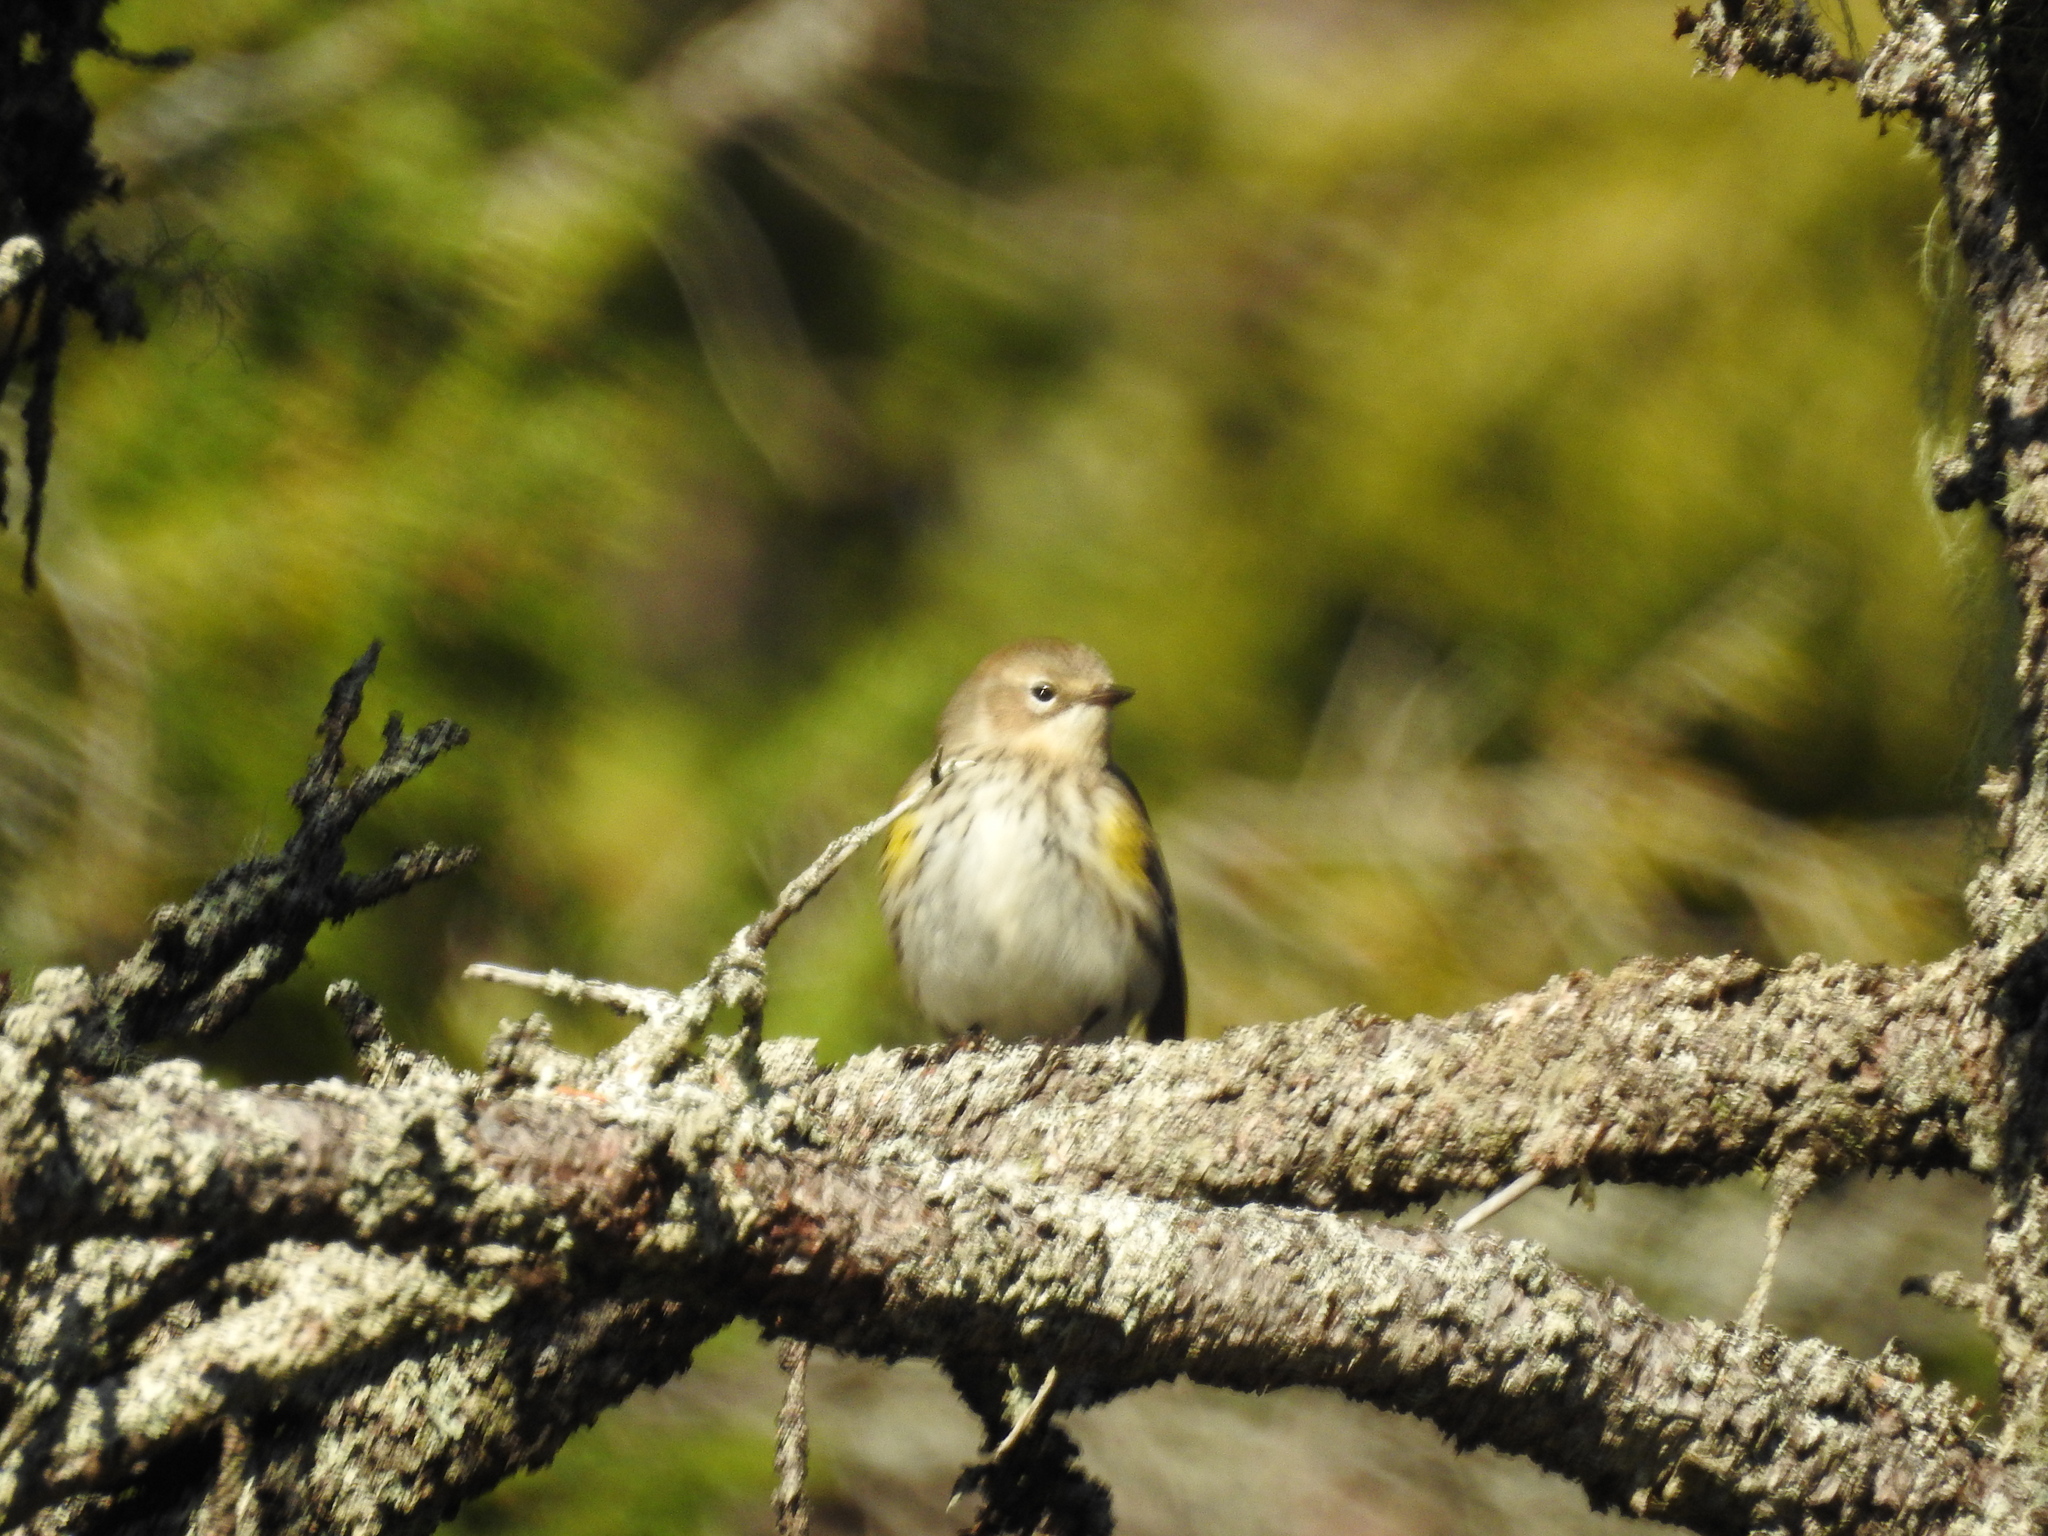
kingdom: Animalia
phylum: Chordata
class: Aves
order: Passeriformes
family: Parulidae
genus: Setophaga
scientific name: Setophaga coronata
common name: Myrtle warbler
